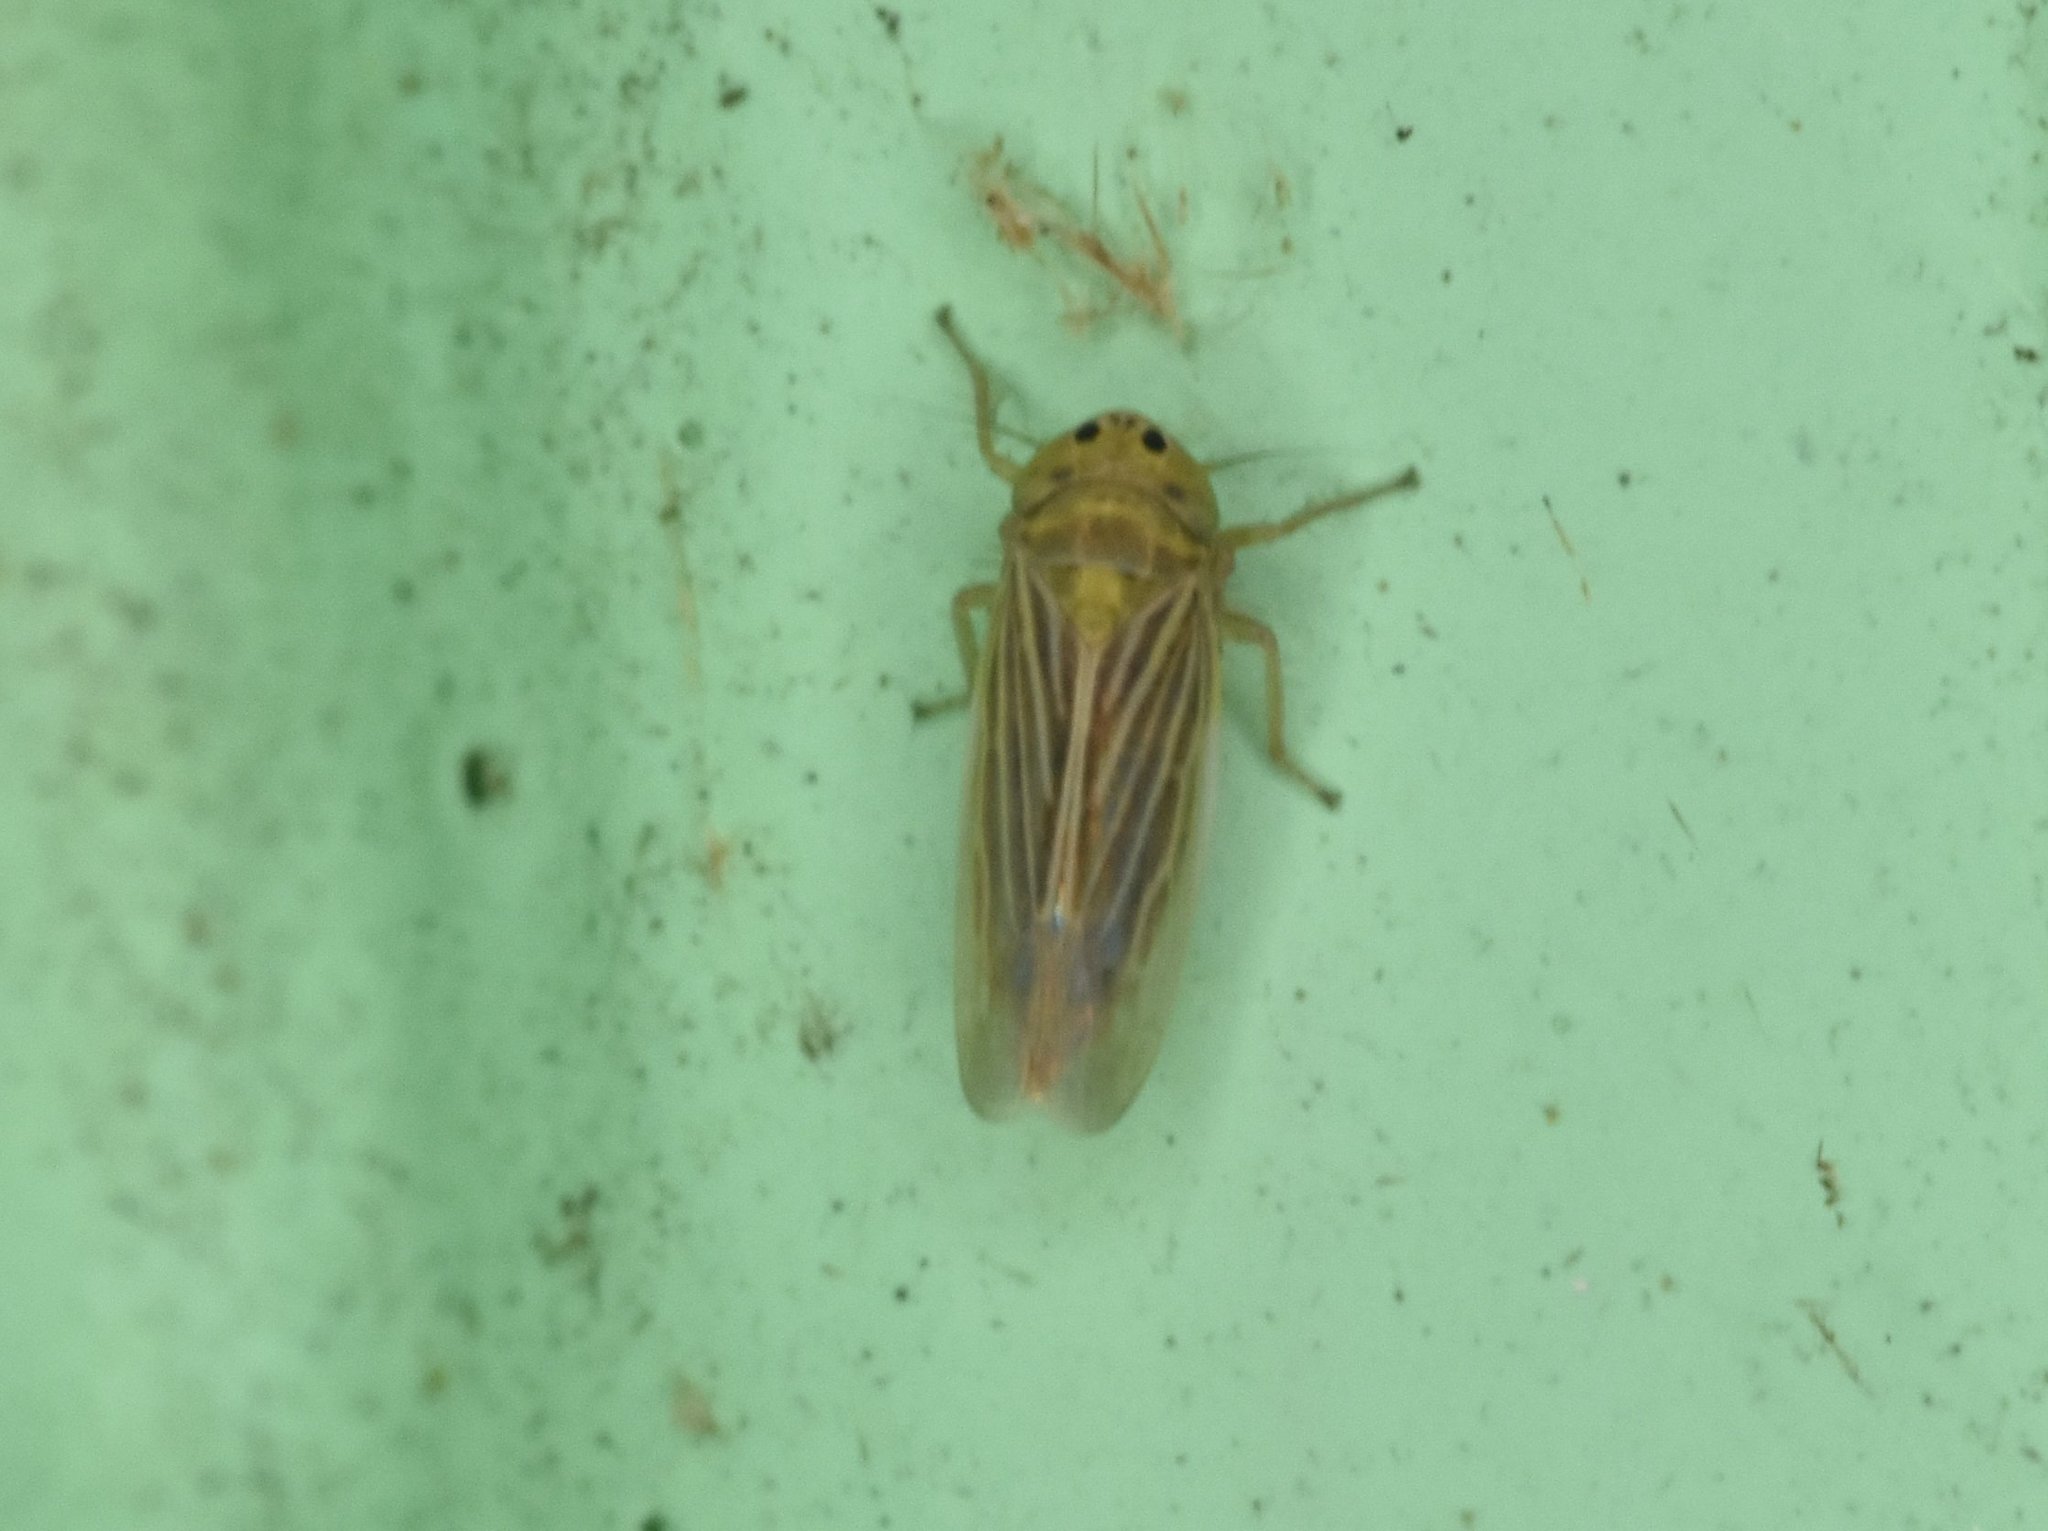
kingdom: Animalia
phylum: Arthropoda
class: Insecta
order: Hemiptera
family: Cicadellidae
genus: Graminella
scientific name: Graminella cognita
